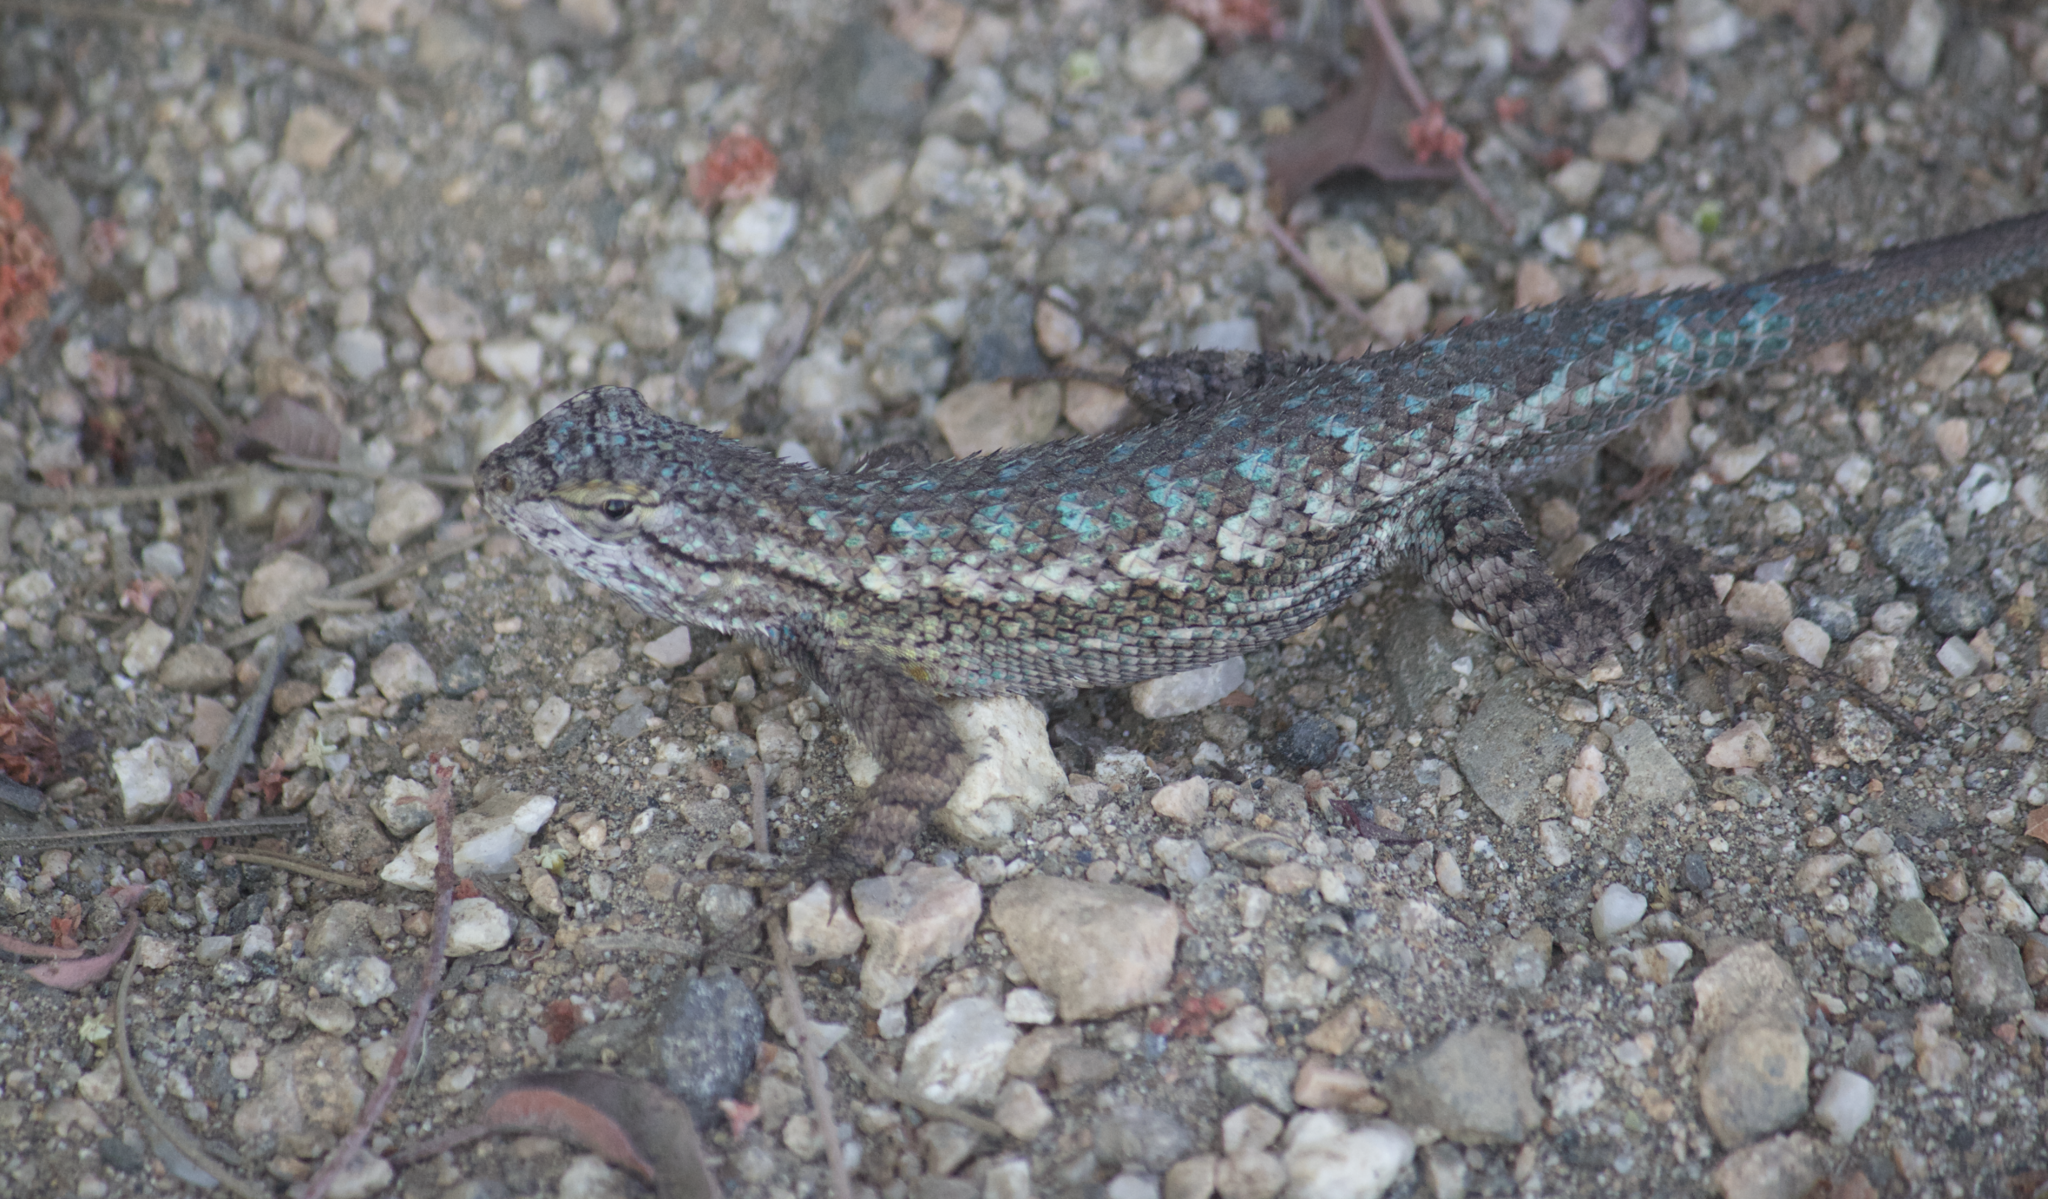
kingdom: Animalia
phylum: Chordata
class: Squamata
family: Phrynosomatidae
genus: Sceloporus
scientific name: Sceloporus occidentalis
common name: Western fence lizard
